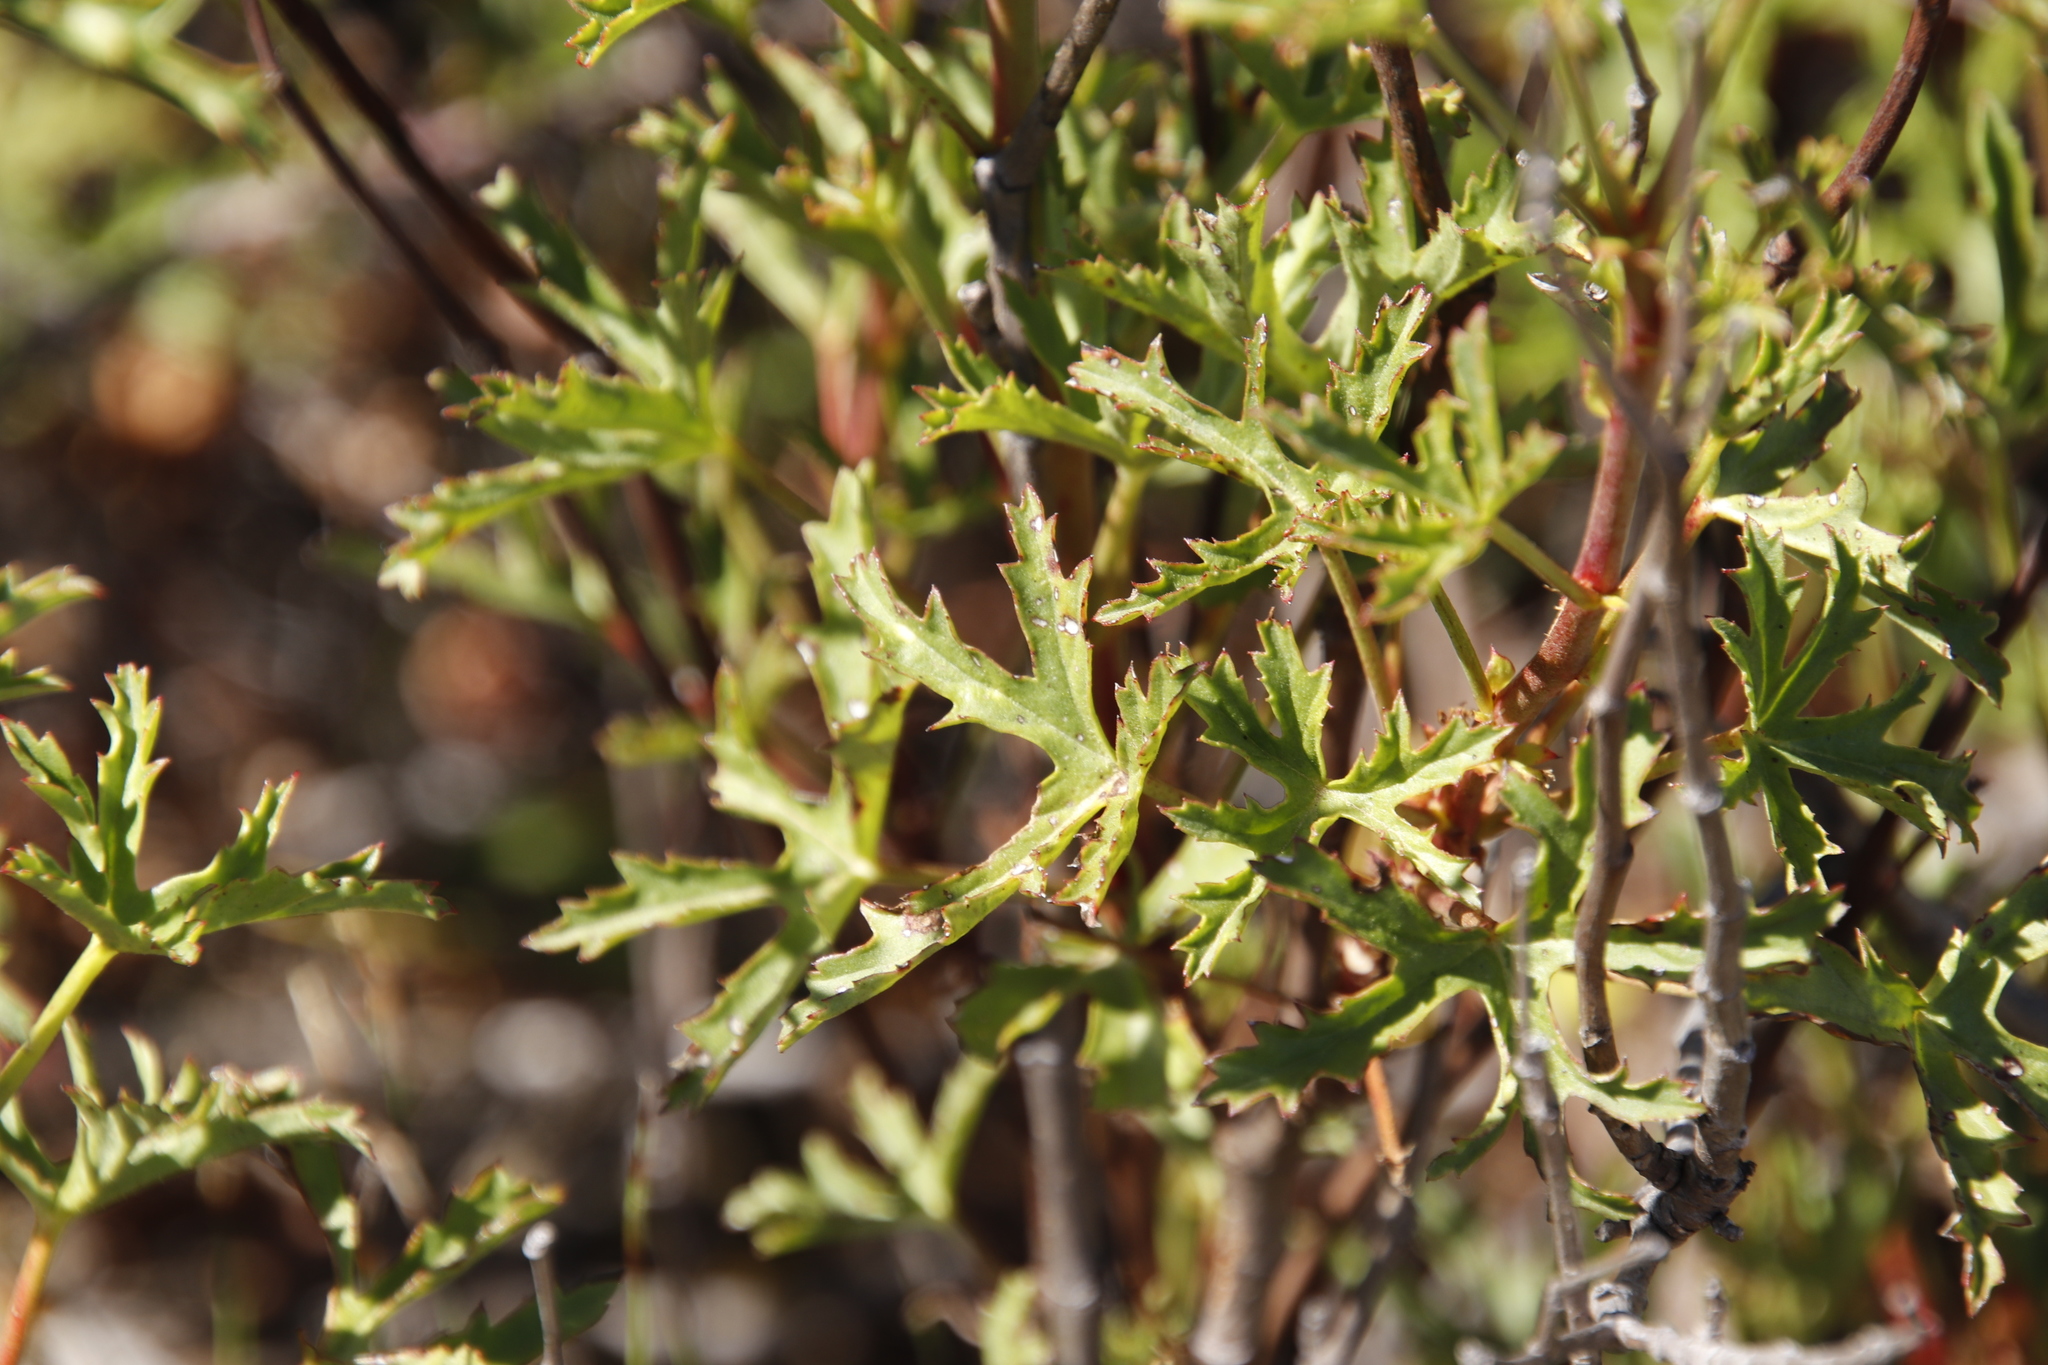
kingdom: Plantae
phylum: Tracheophyta
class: Magnoliopsida
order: Geraniales
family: Geraniaceae
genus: Pelargonium
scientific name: Pelargonium scabrum
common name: Apricot geranium
